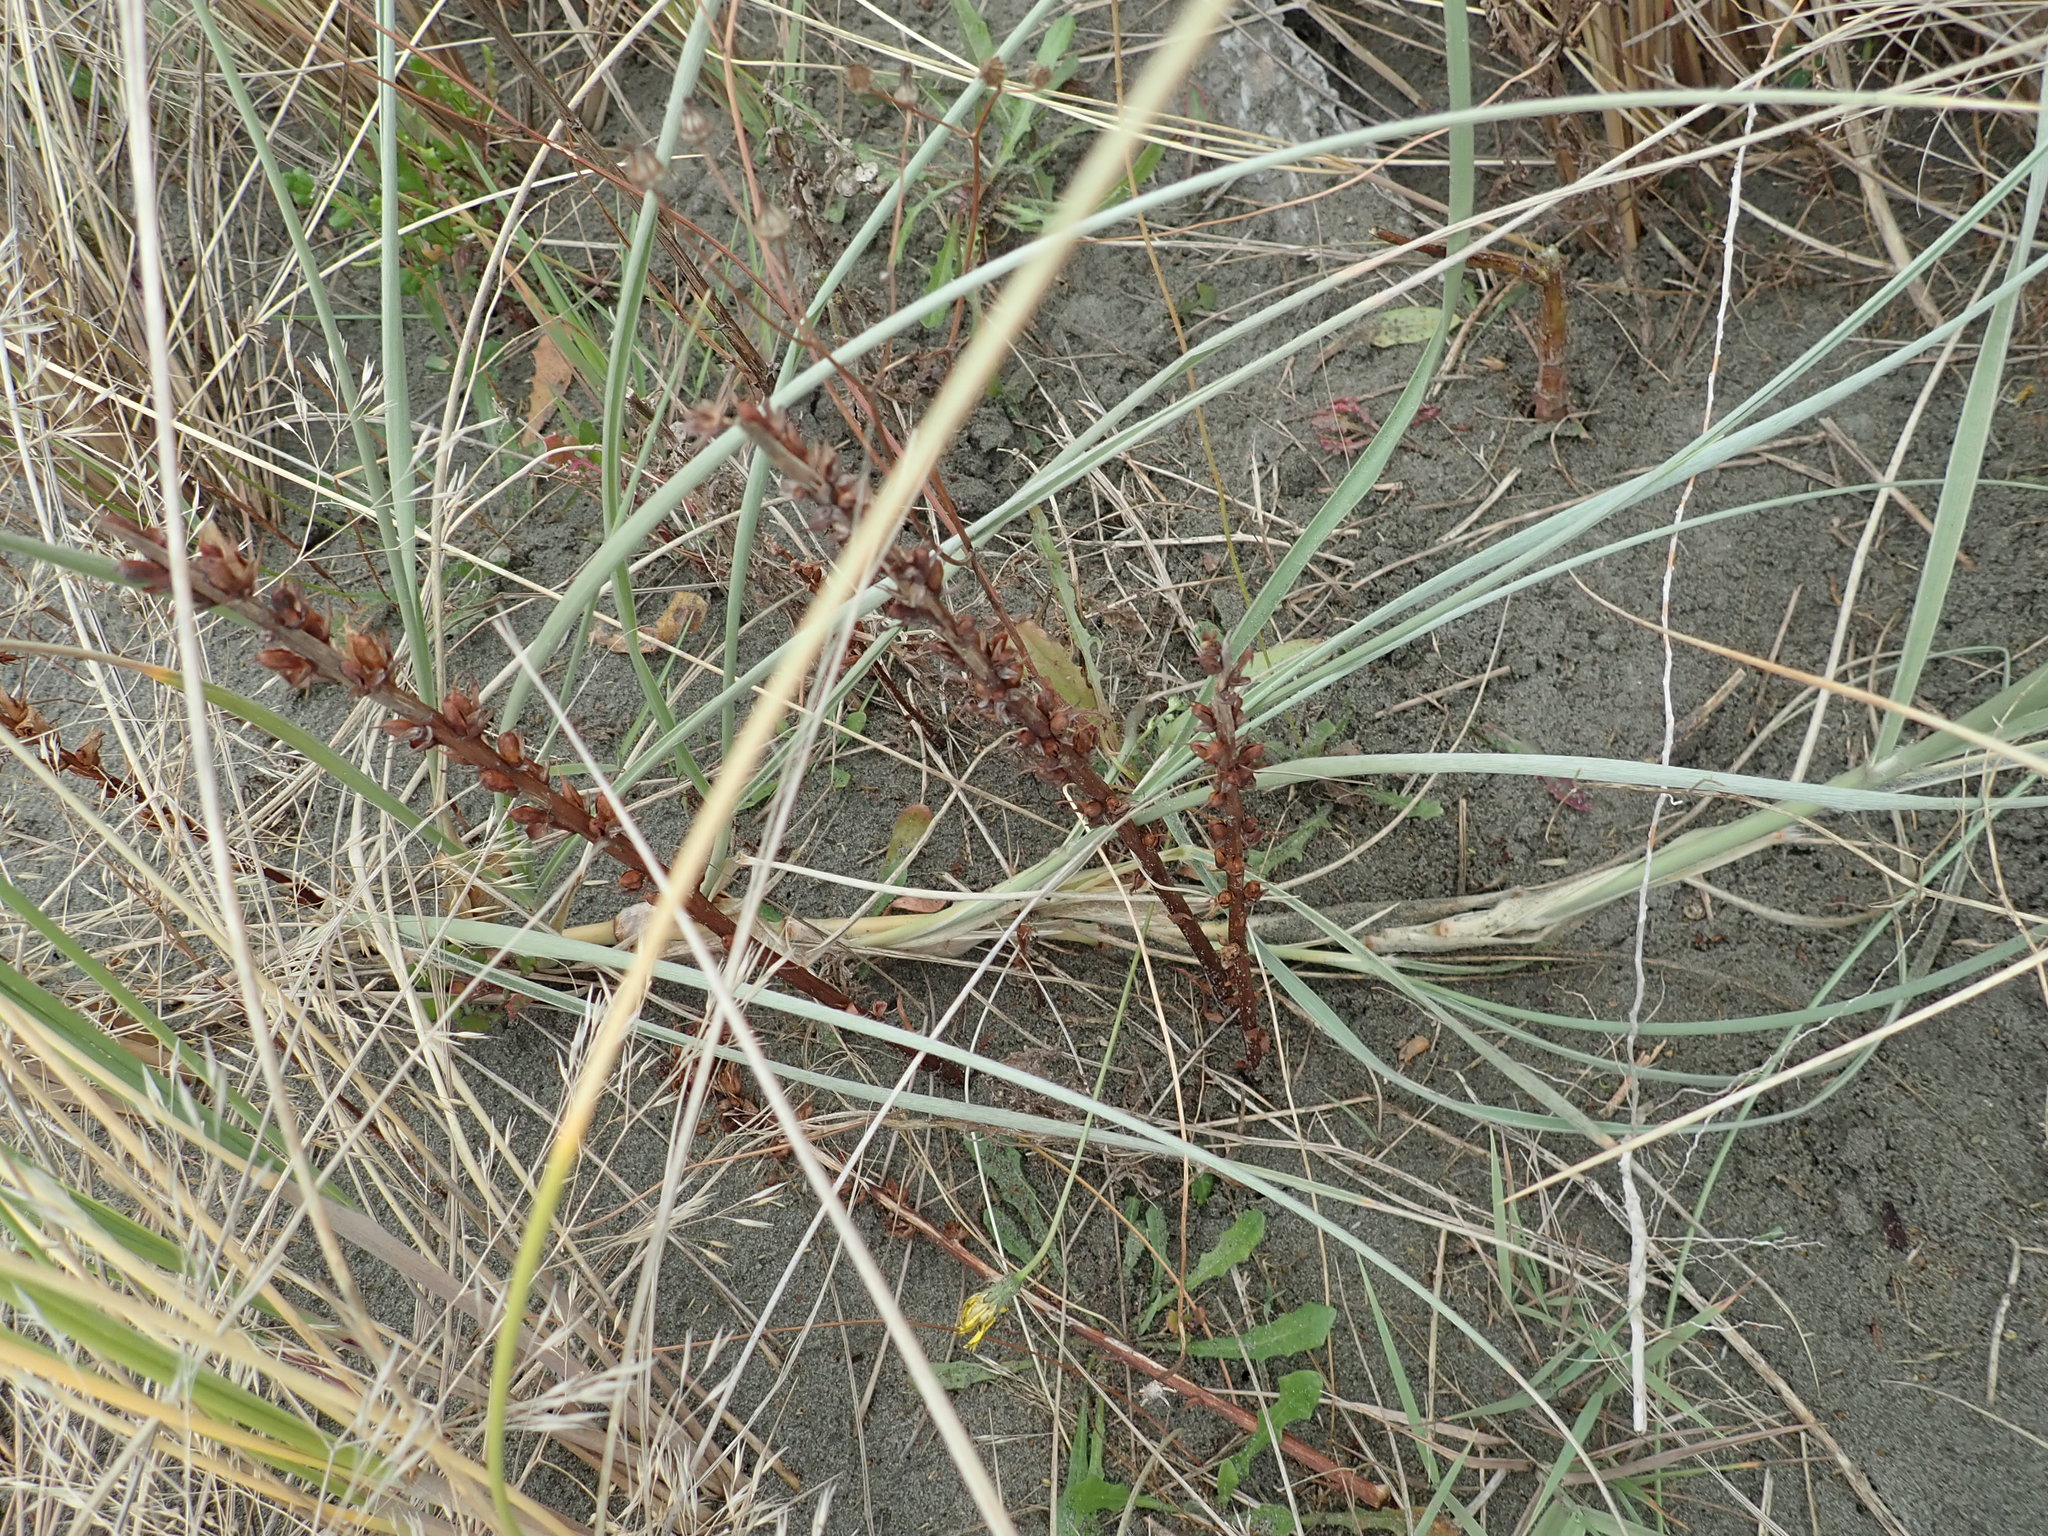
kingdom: Plantae
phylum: Tracheophyta
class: Magnoliopsida
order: Lamiales
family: Orobanchaceae
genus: Orobanche
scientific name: Orobanche minor
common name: Common broomrape
